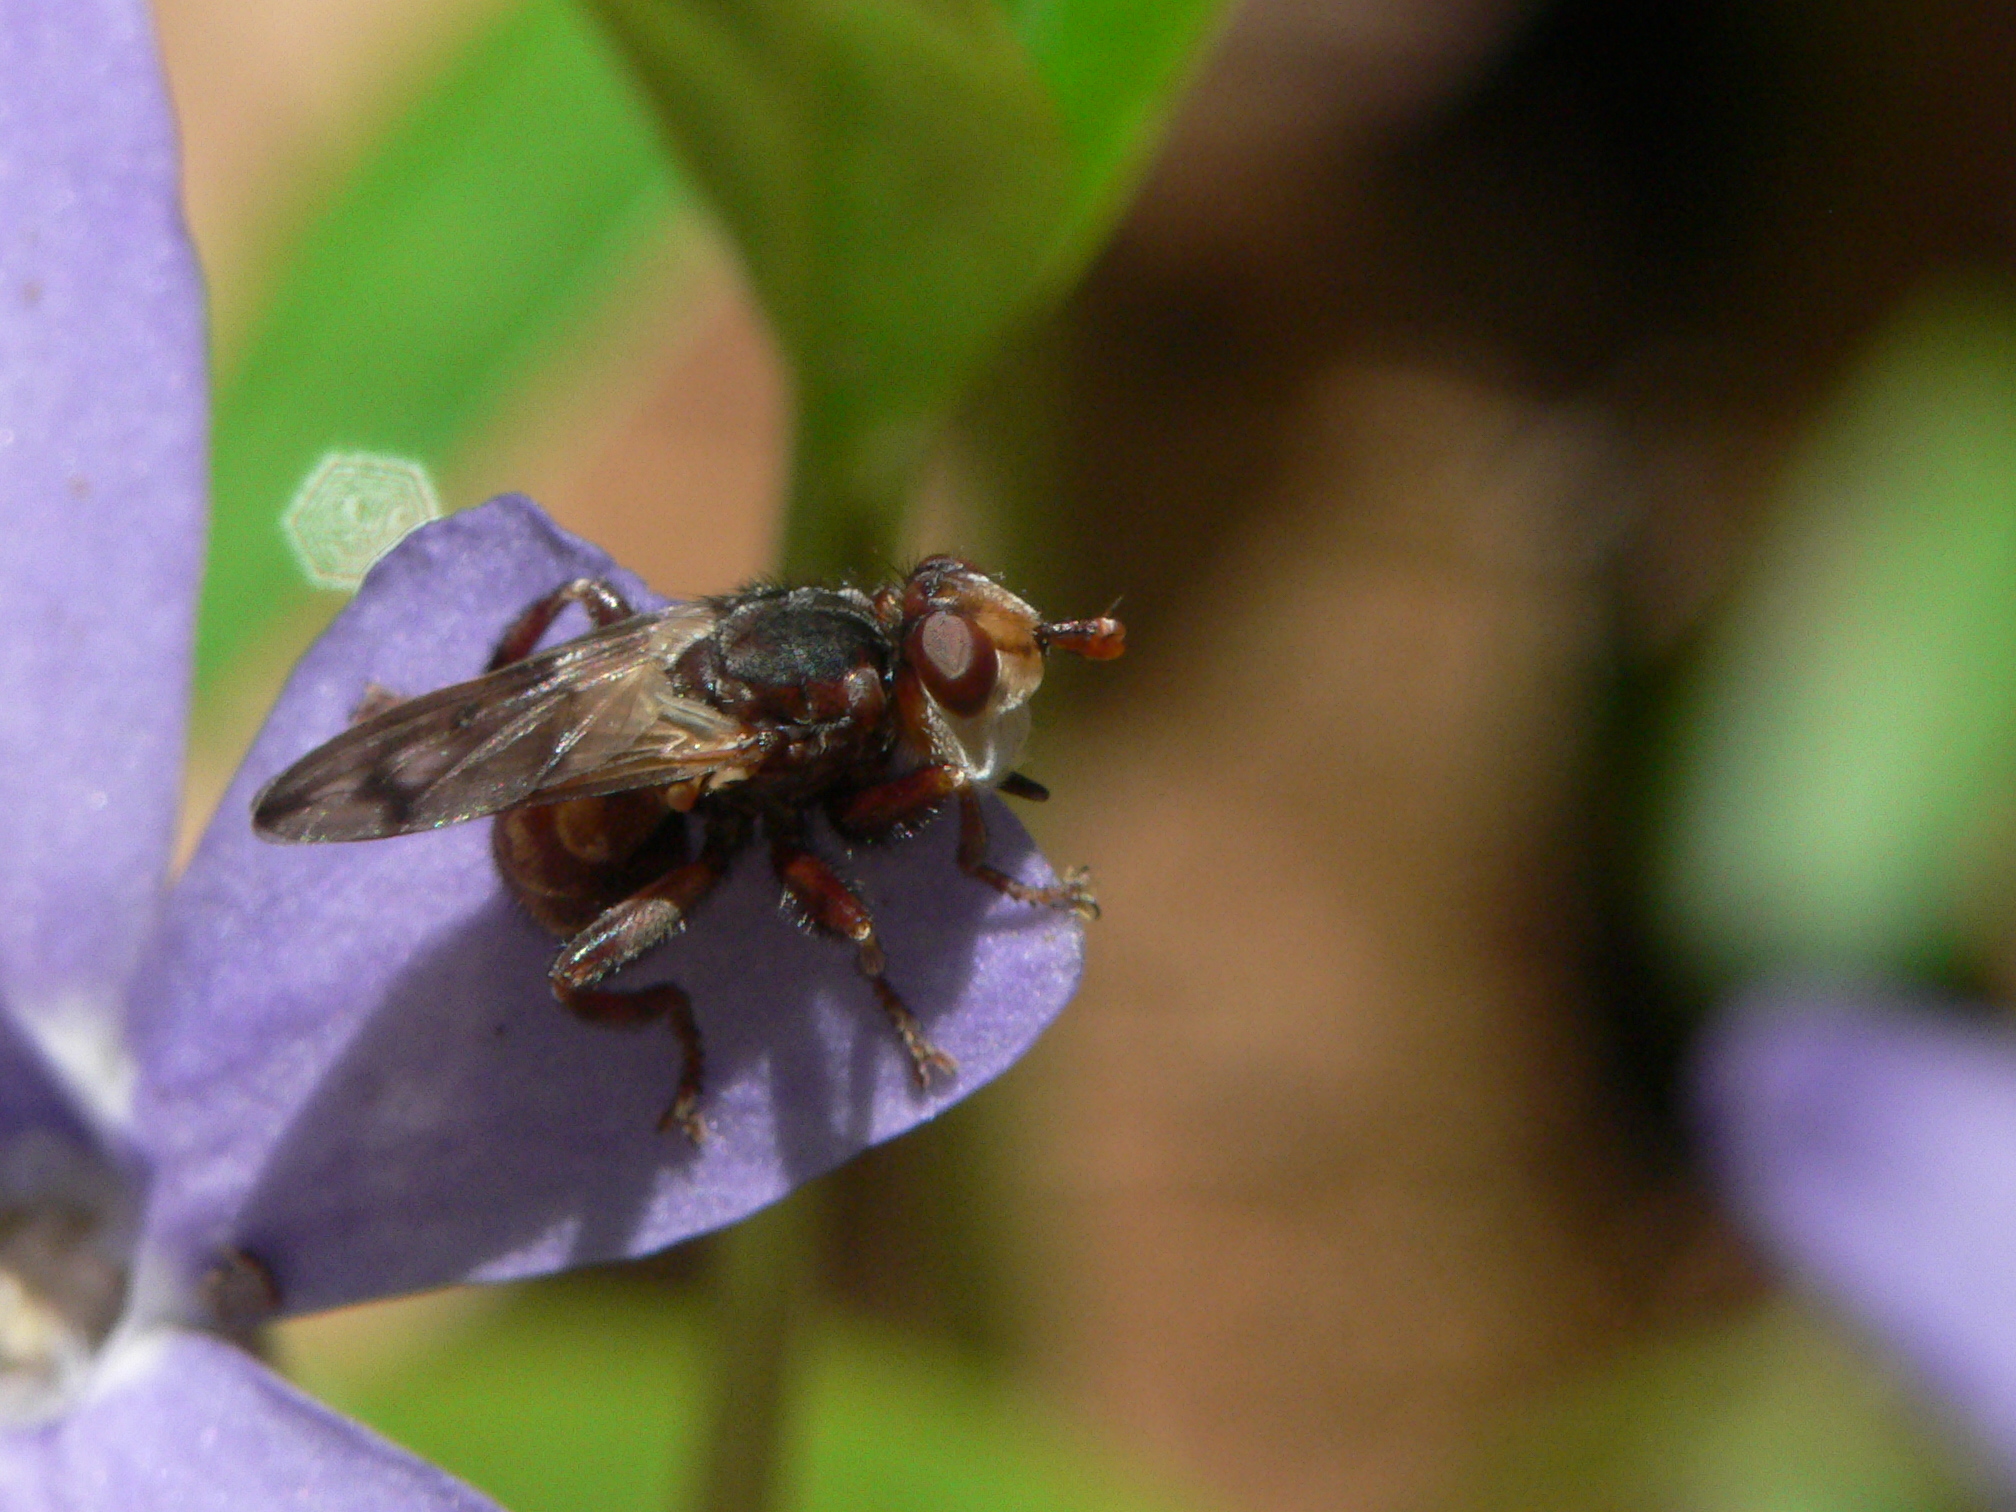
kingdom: Animalia
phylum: Arthropoda
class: Insecta
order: Diptera
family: Conopidae
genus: Myopa
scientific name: Myopa vicaria
